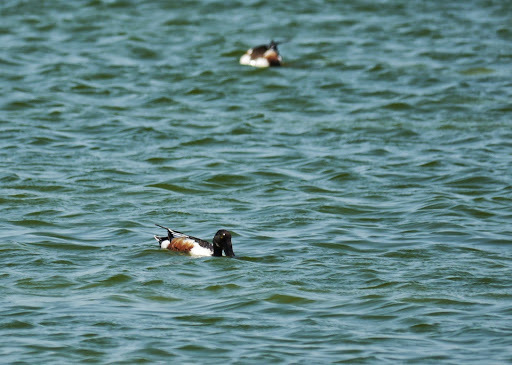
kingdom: Animalia
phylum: Chordata
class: Aves
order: Anseriformes
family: Anatidae
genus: Spatula
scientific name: Spatula clypeata
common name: Northern shoveler
